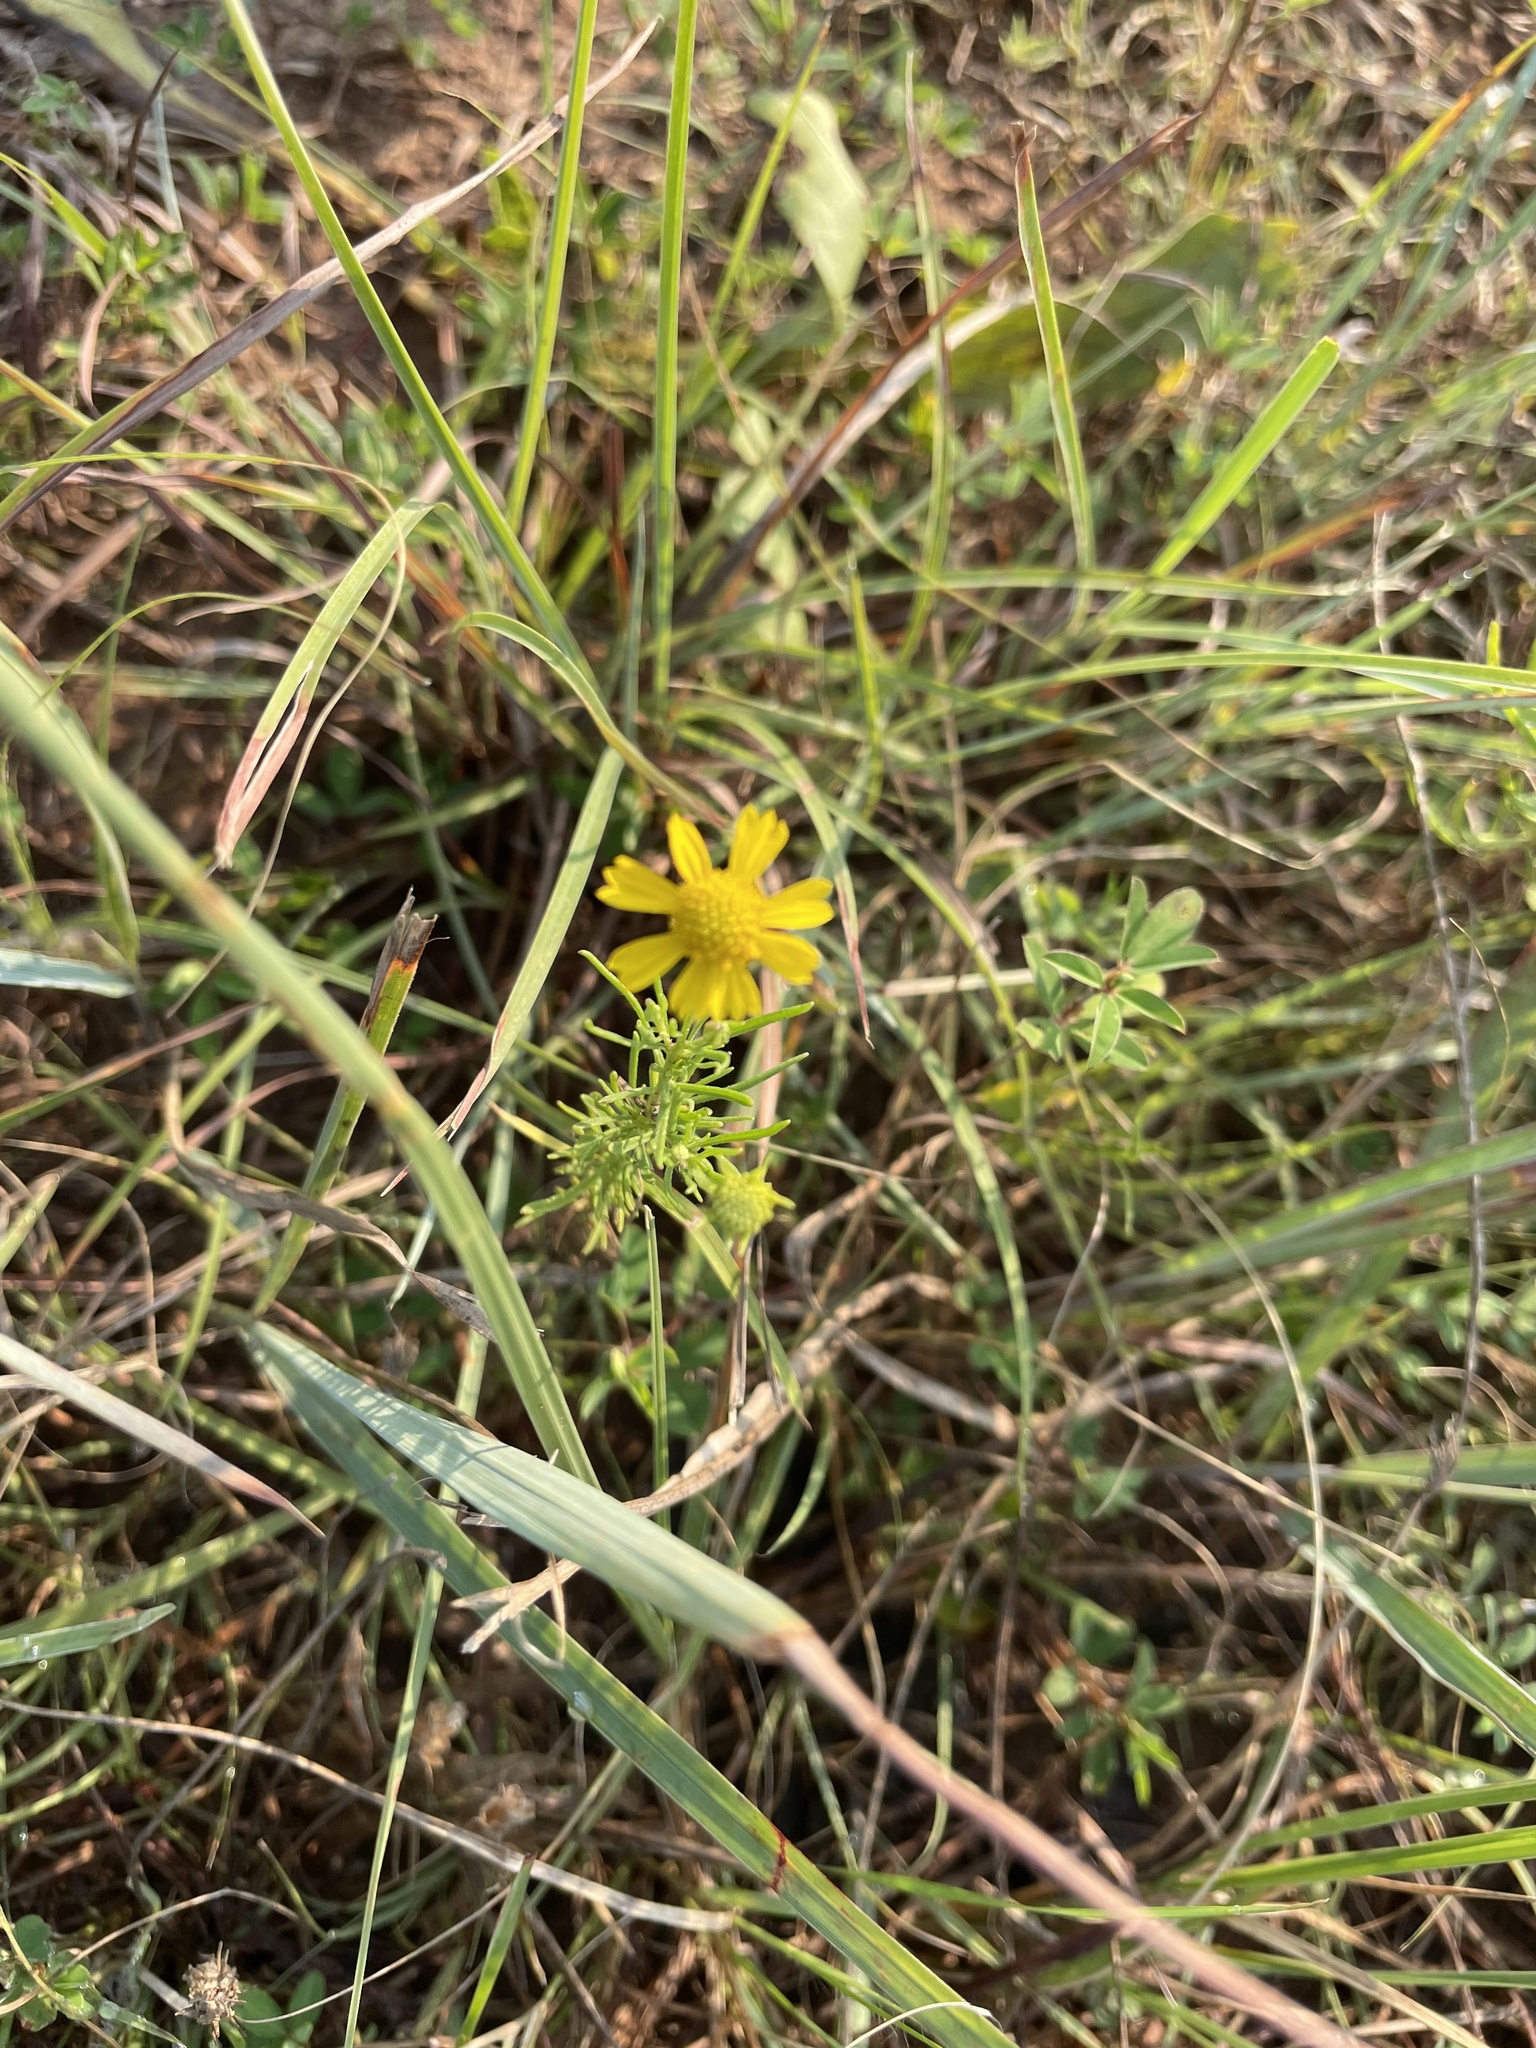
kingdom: Plantae
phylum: Tracheophyta
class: Magnoliopsida
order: Asterales
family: Asteraceae
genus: Helenium
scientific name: Helenium amarum
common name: Bitter sneezeweed
